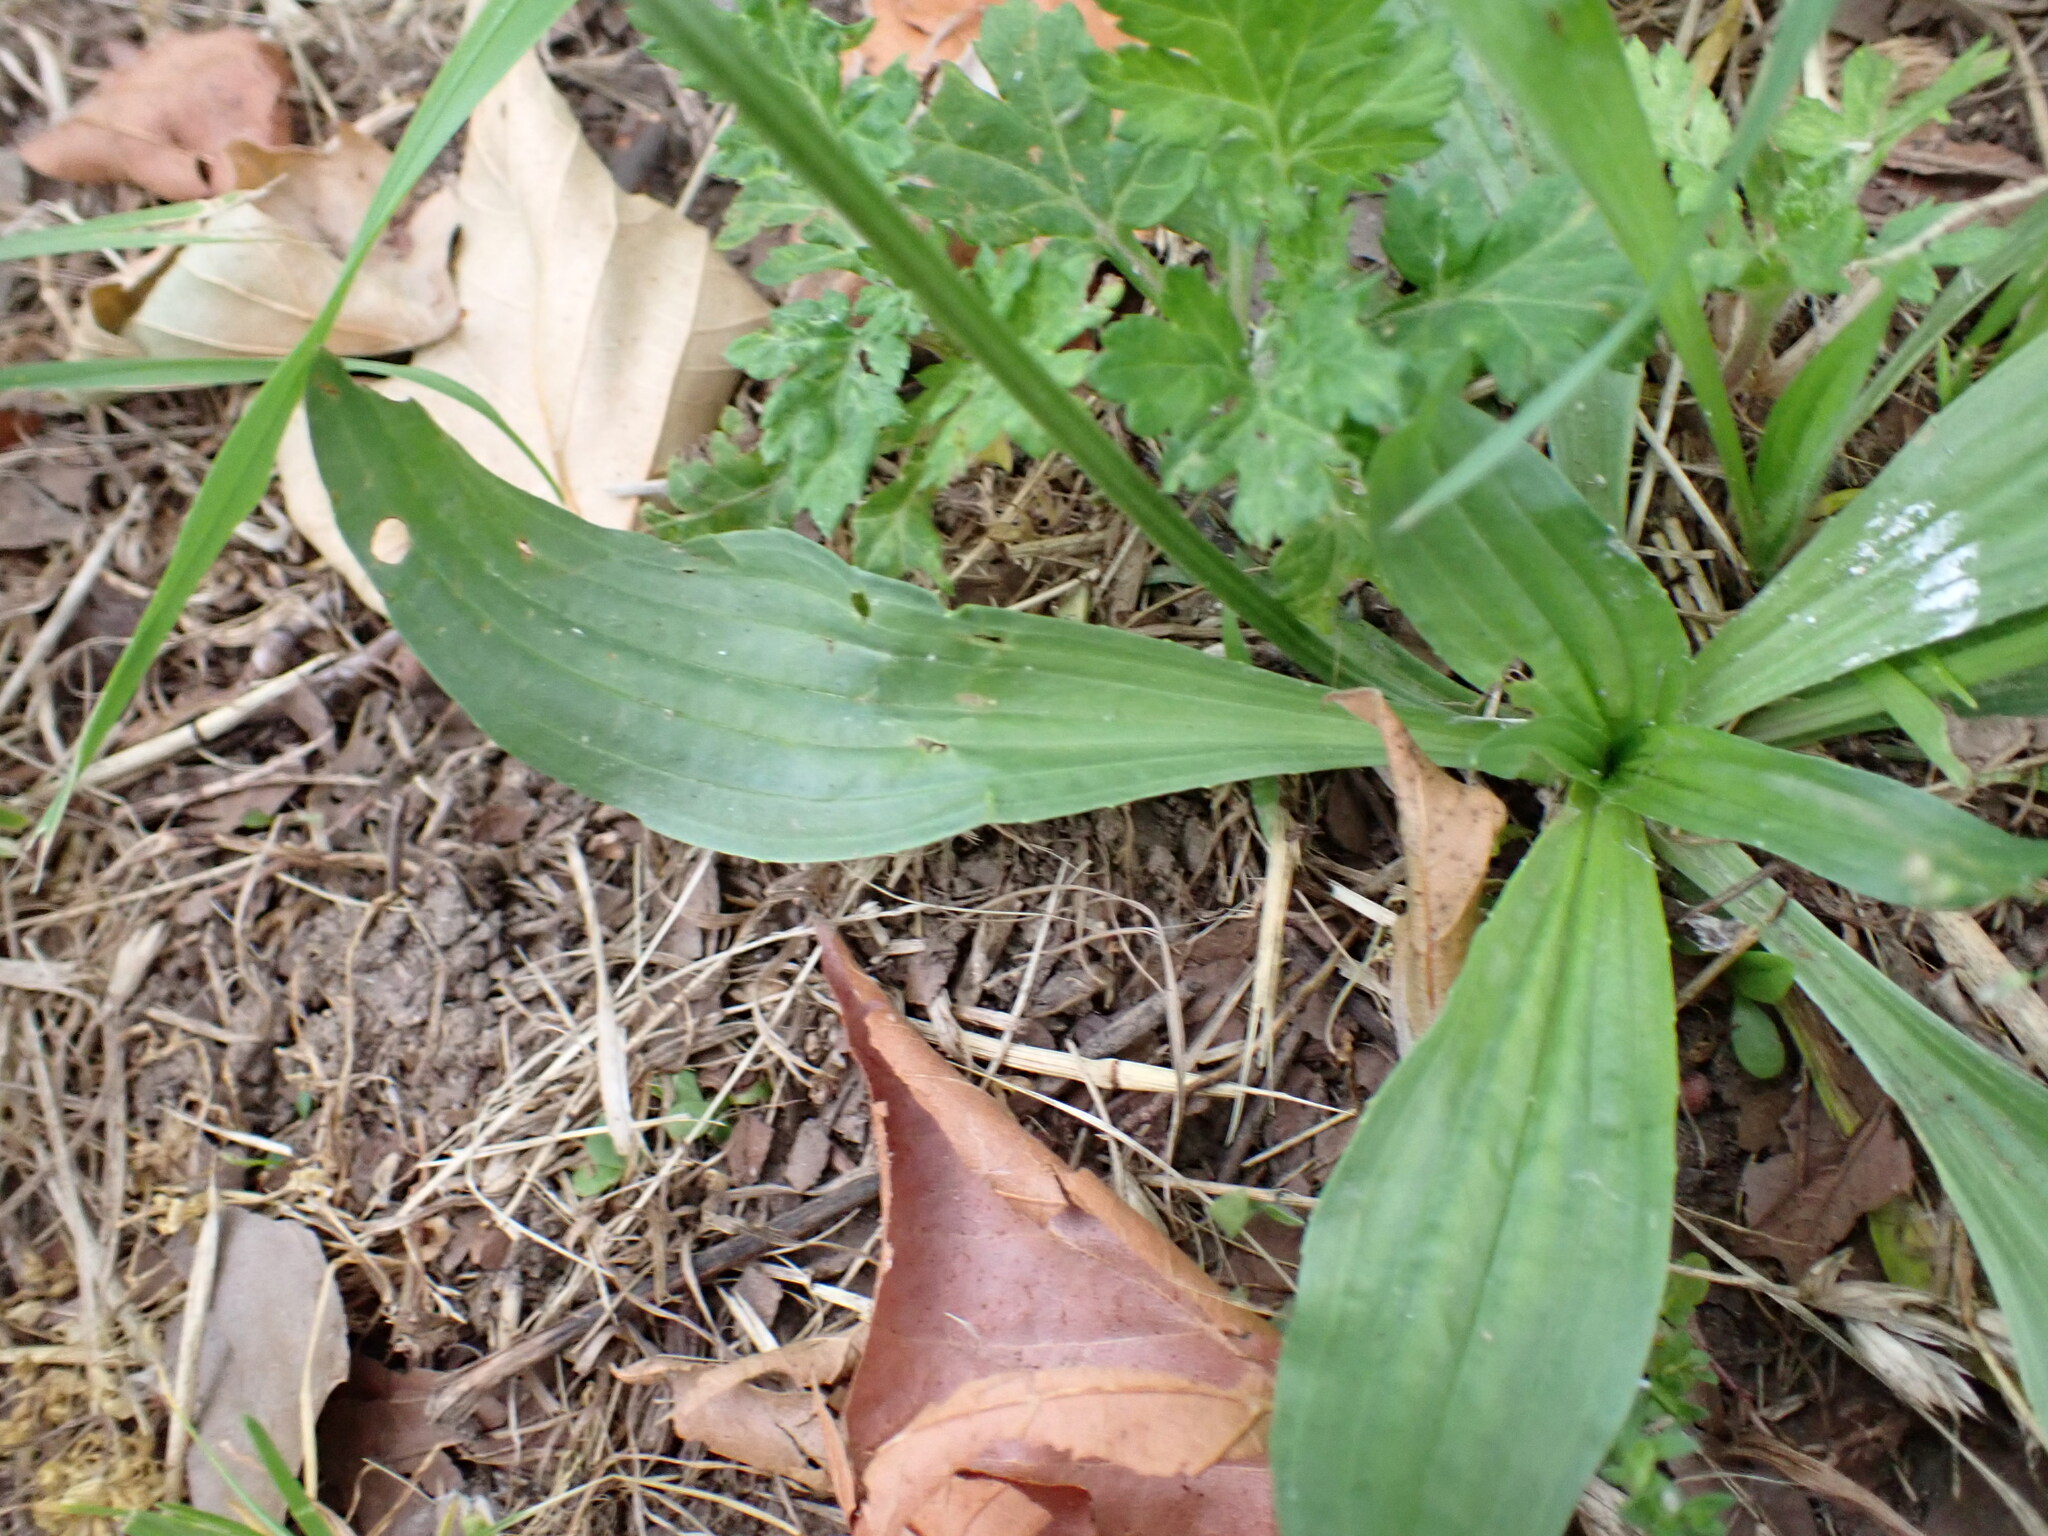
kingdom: Plantae
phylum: Tracheophyta
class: Magnoliopsida
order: Lamiales
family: Plantaginaceae
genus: Plantago
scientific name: Plantago lanceolata
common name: Ribwort plantain
